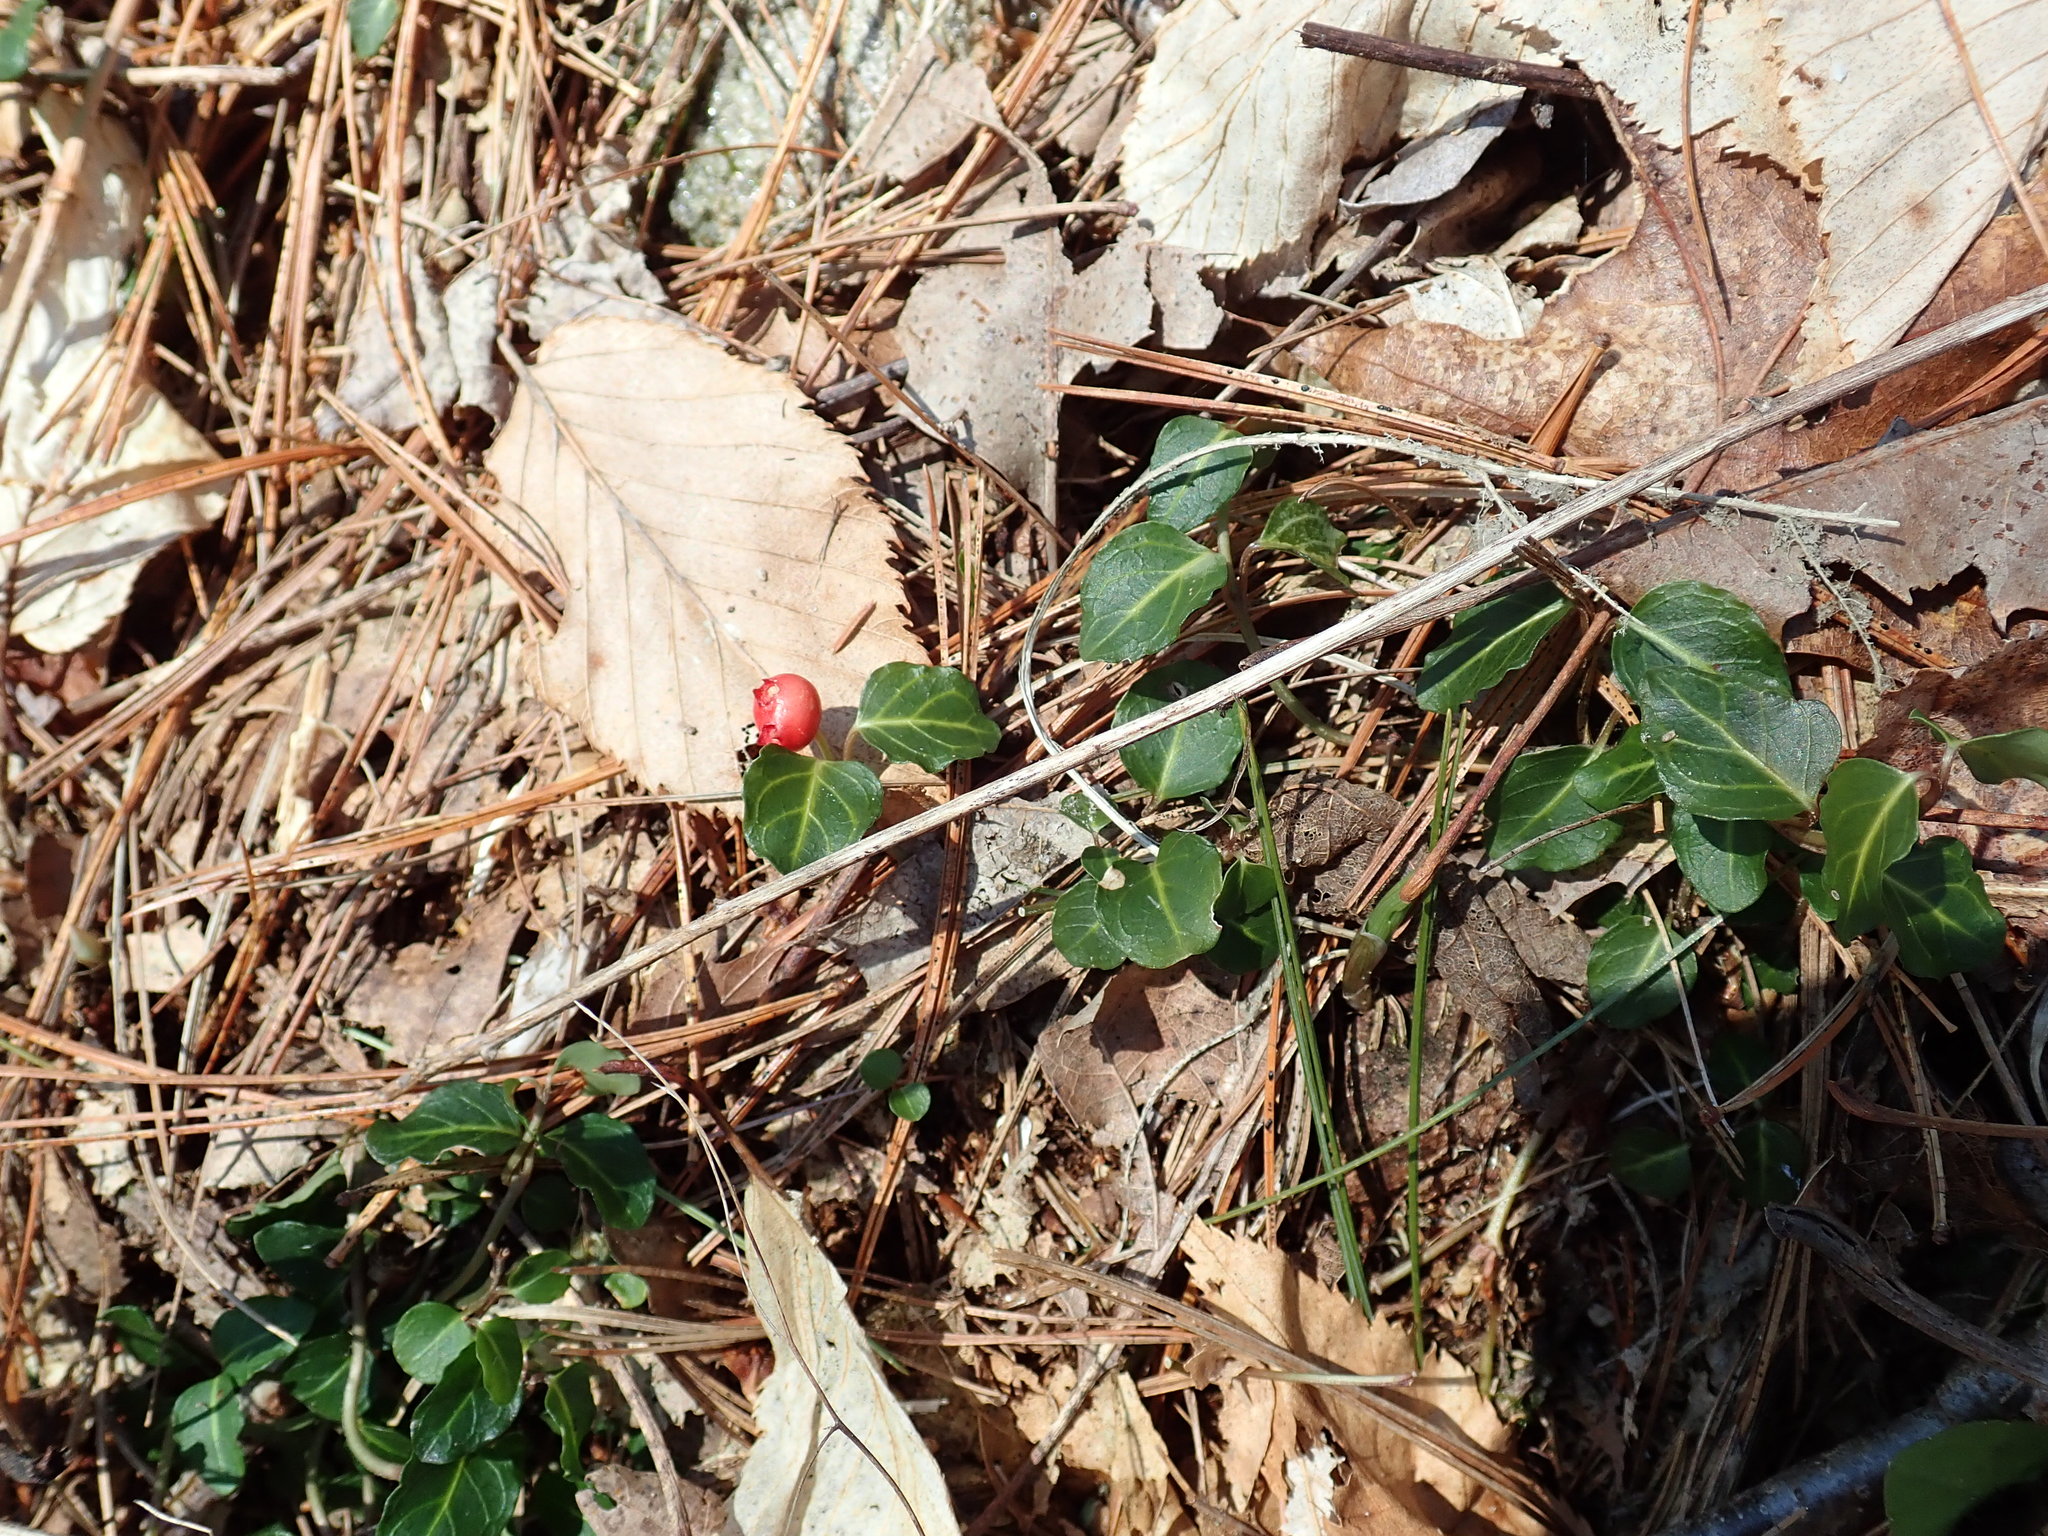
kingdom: Plantae
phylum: Tracheophyta
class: Magnoliopsida
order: Gentianales
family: Rubiaceae
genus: Mitchella
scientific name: Mitchella repens
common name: Partridge-berry
